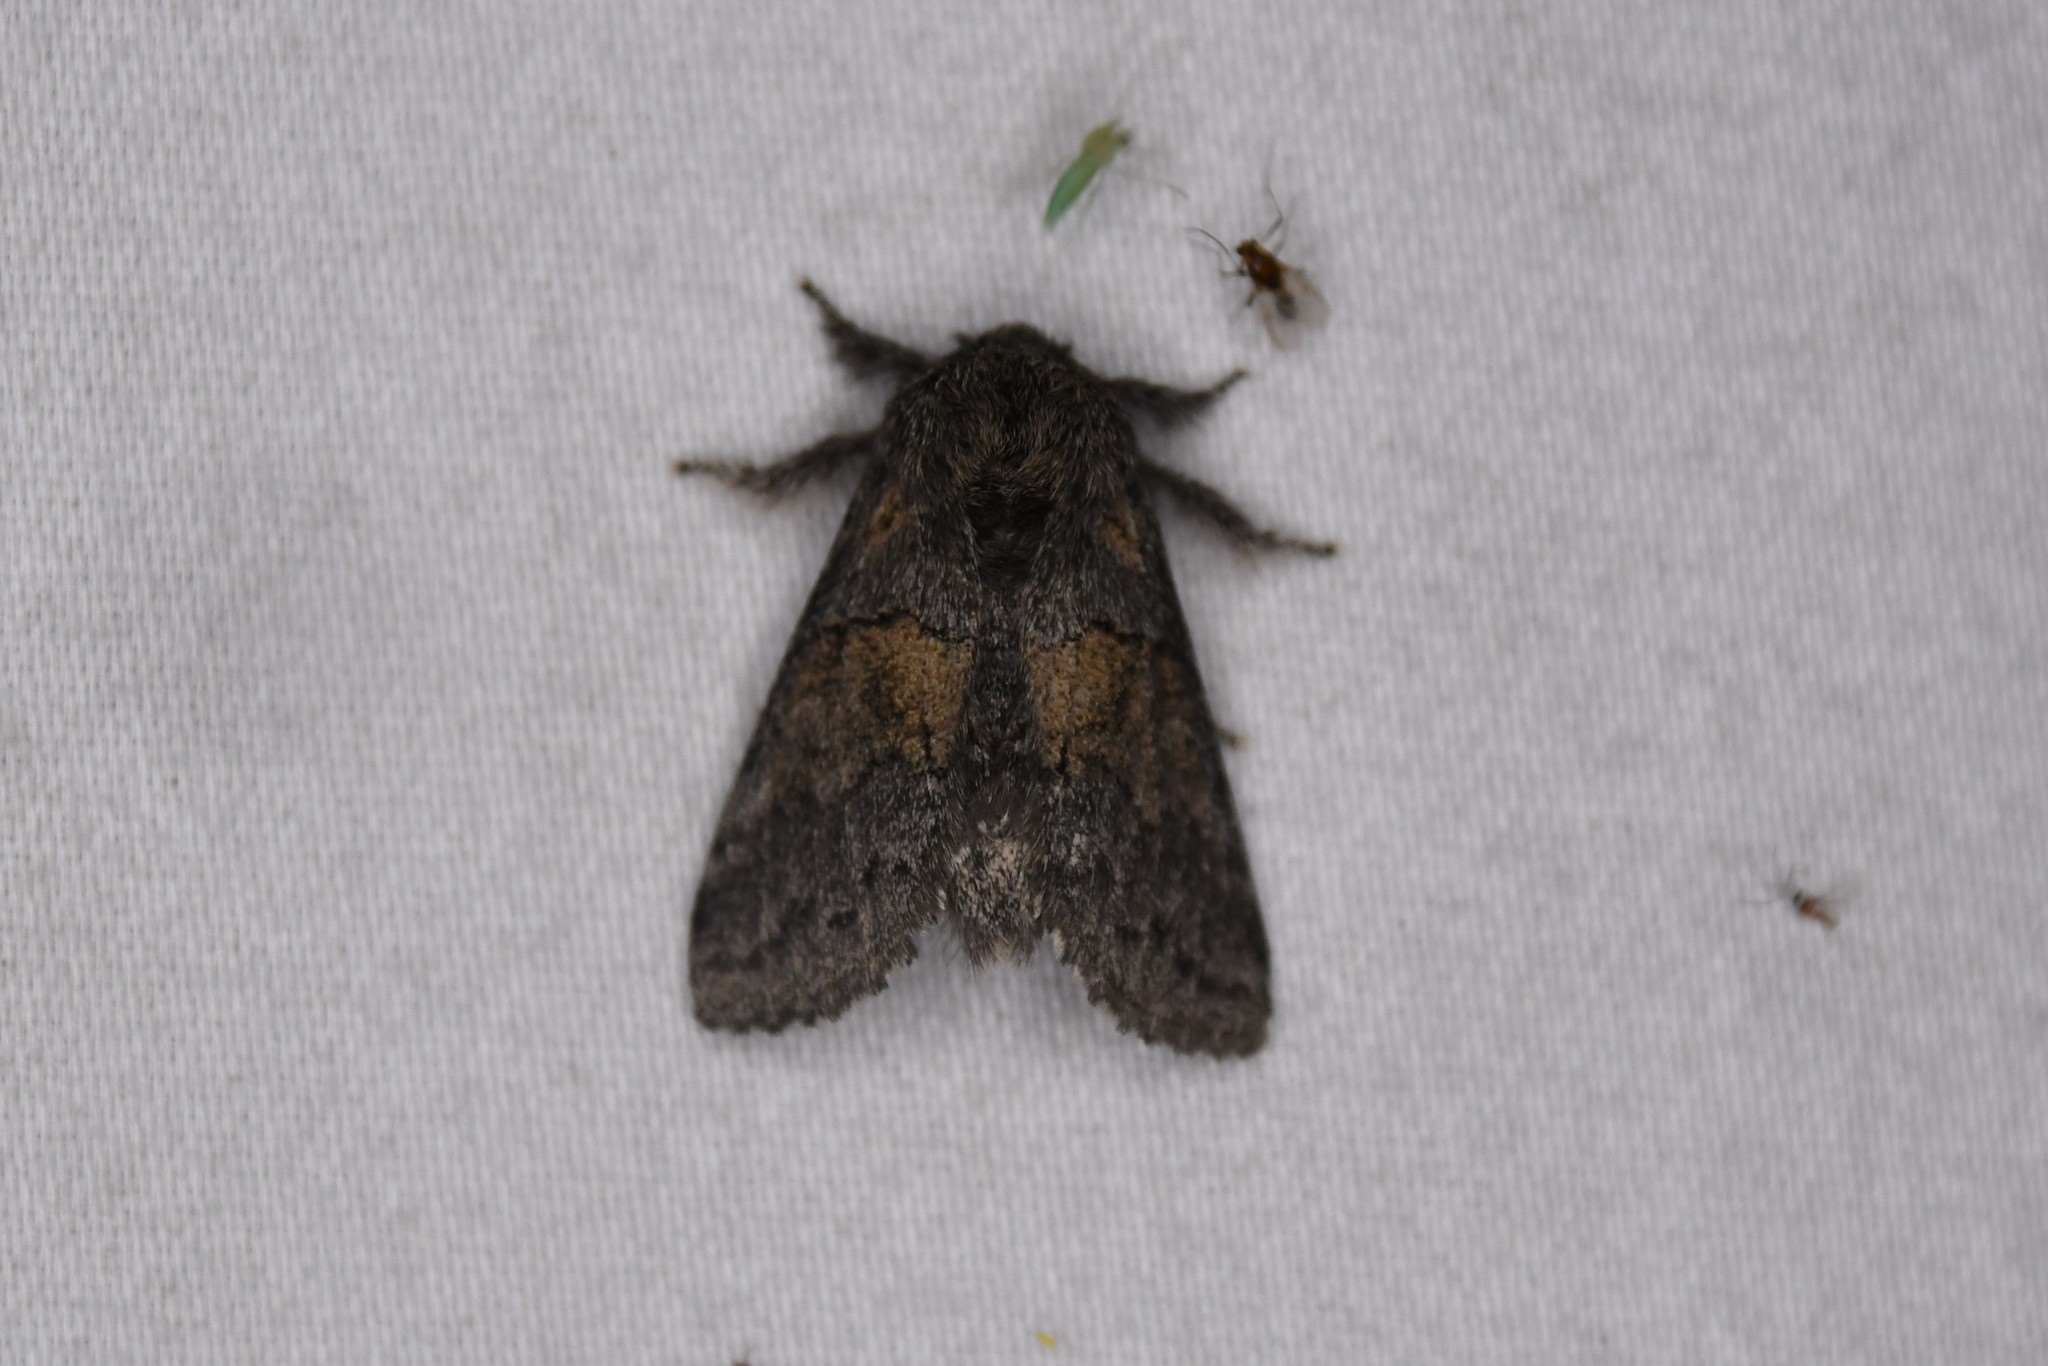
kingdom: Animalia
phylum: Arthropoda
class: Insecta
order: Lepidoptera
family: Notodontidae
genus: Gluphisia
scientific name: Gluphisia septentrionis
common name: Common gluphisia
